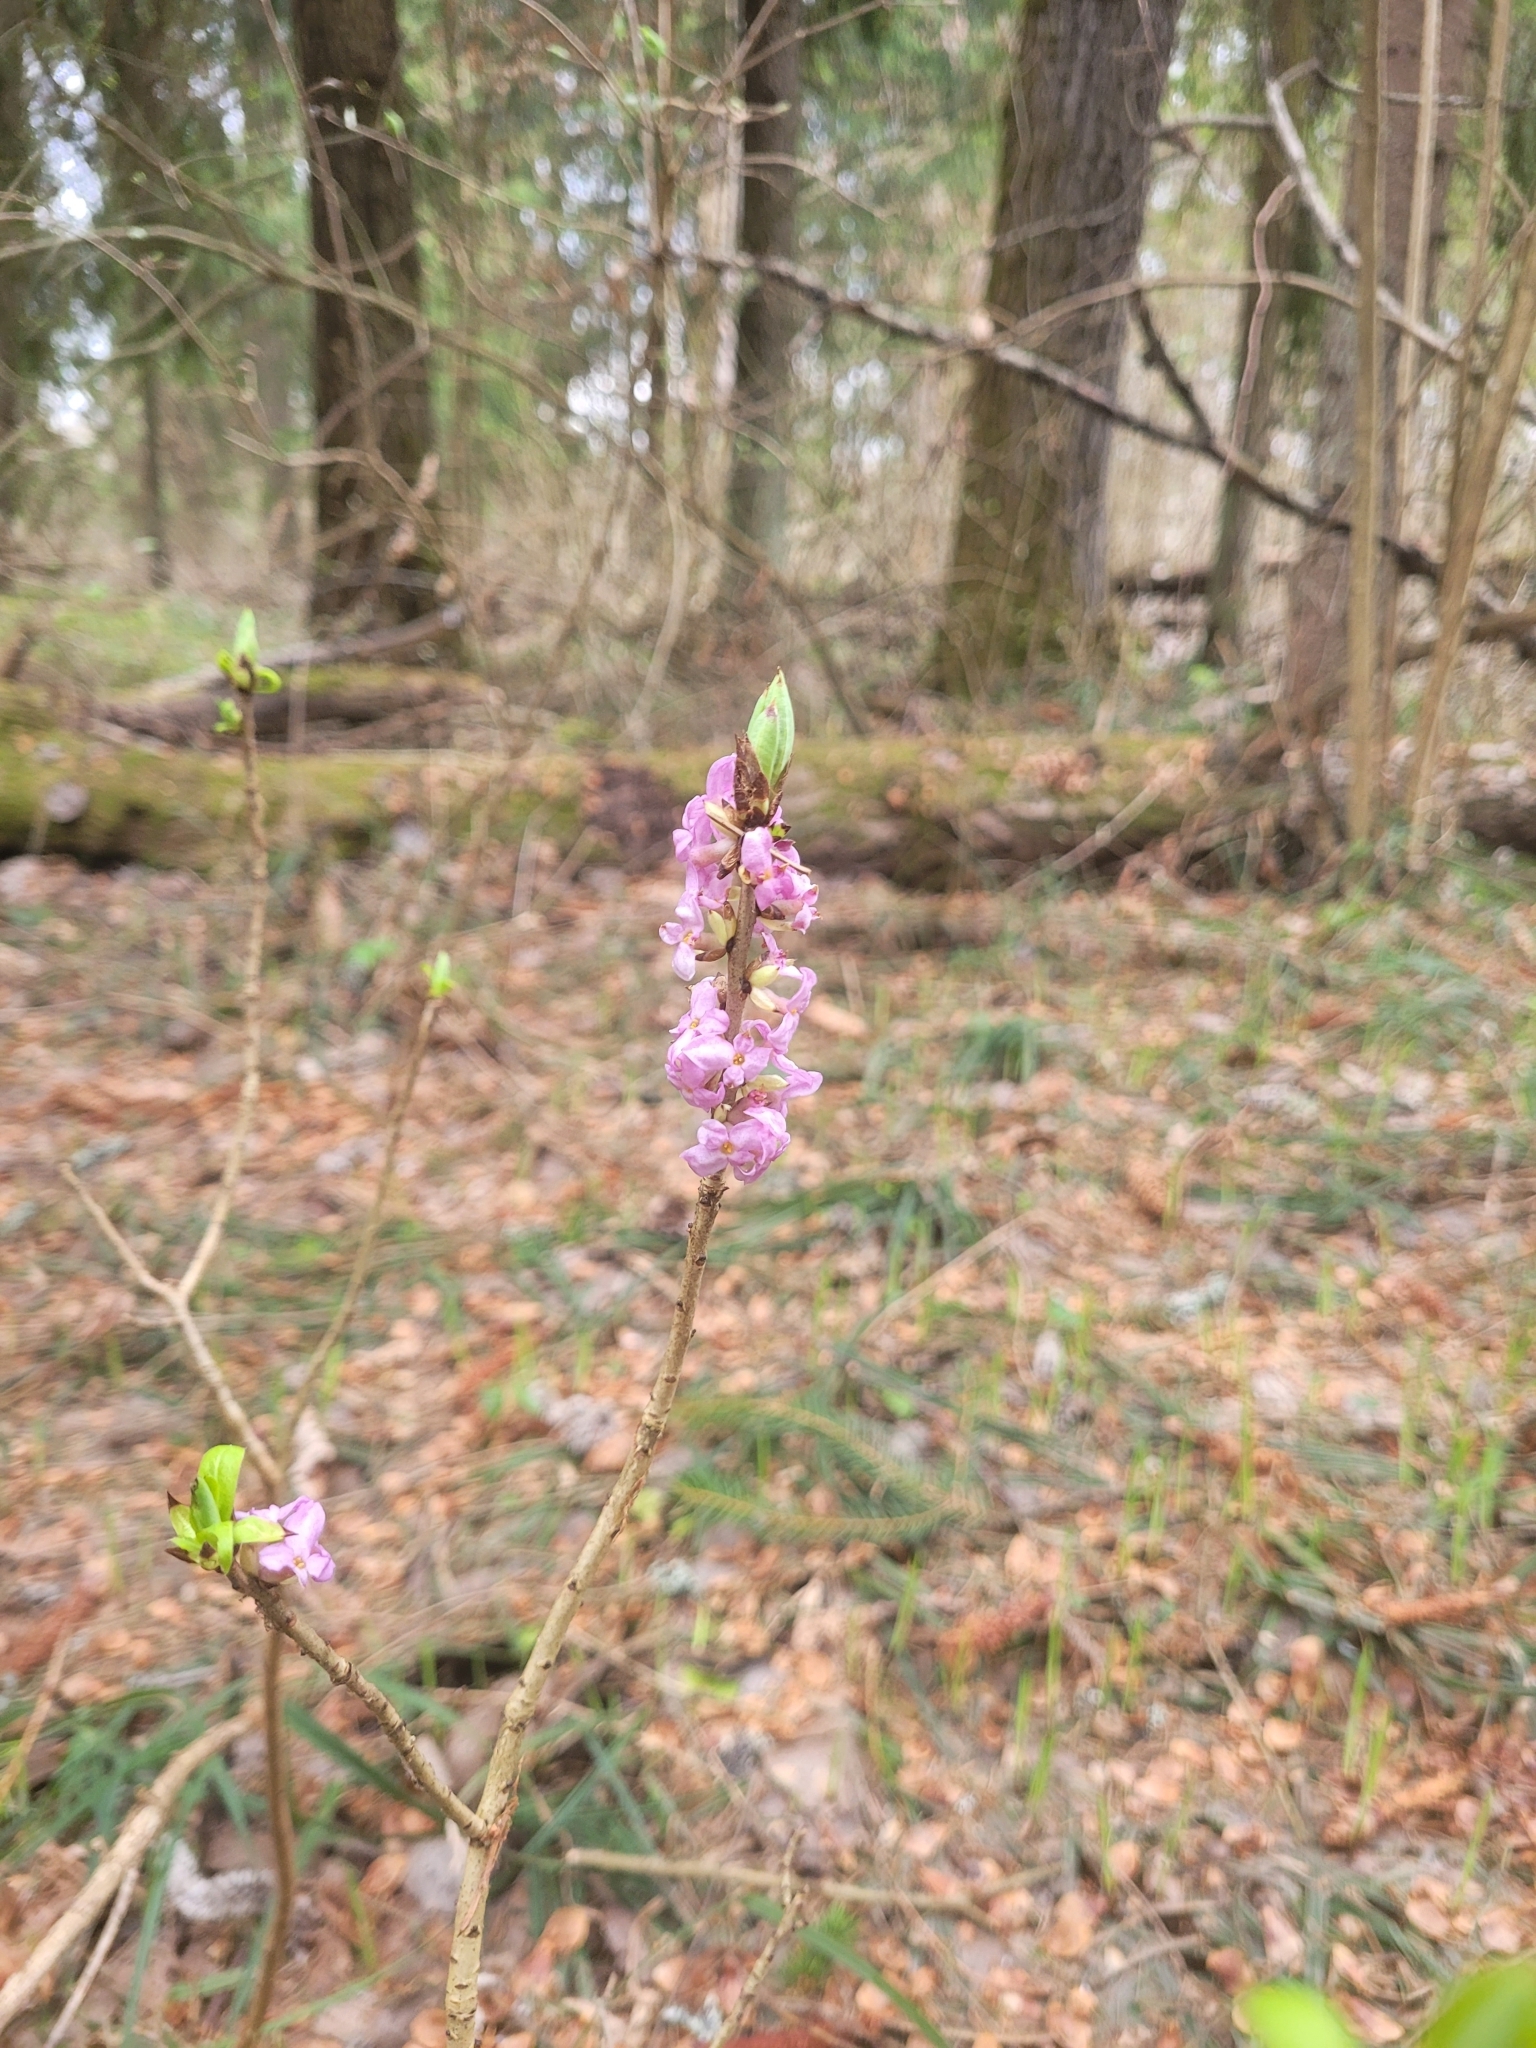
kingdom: Plantae
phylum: Tracheophyta
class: Magnoliopsida
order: Malvales
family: Thymelaeaceae
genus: Daphne
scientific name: Daphne mezereum
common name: Mezereon
